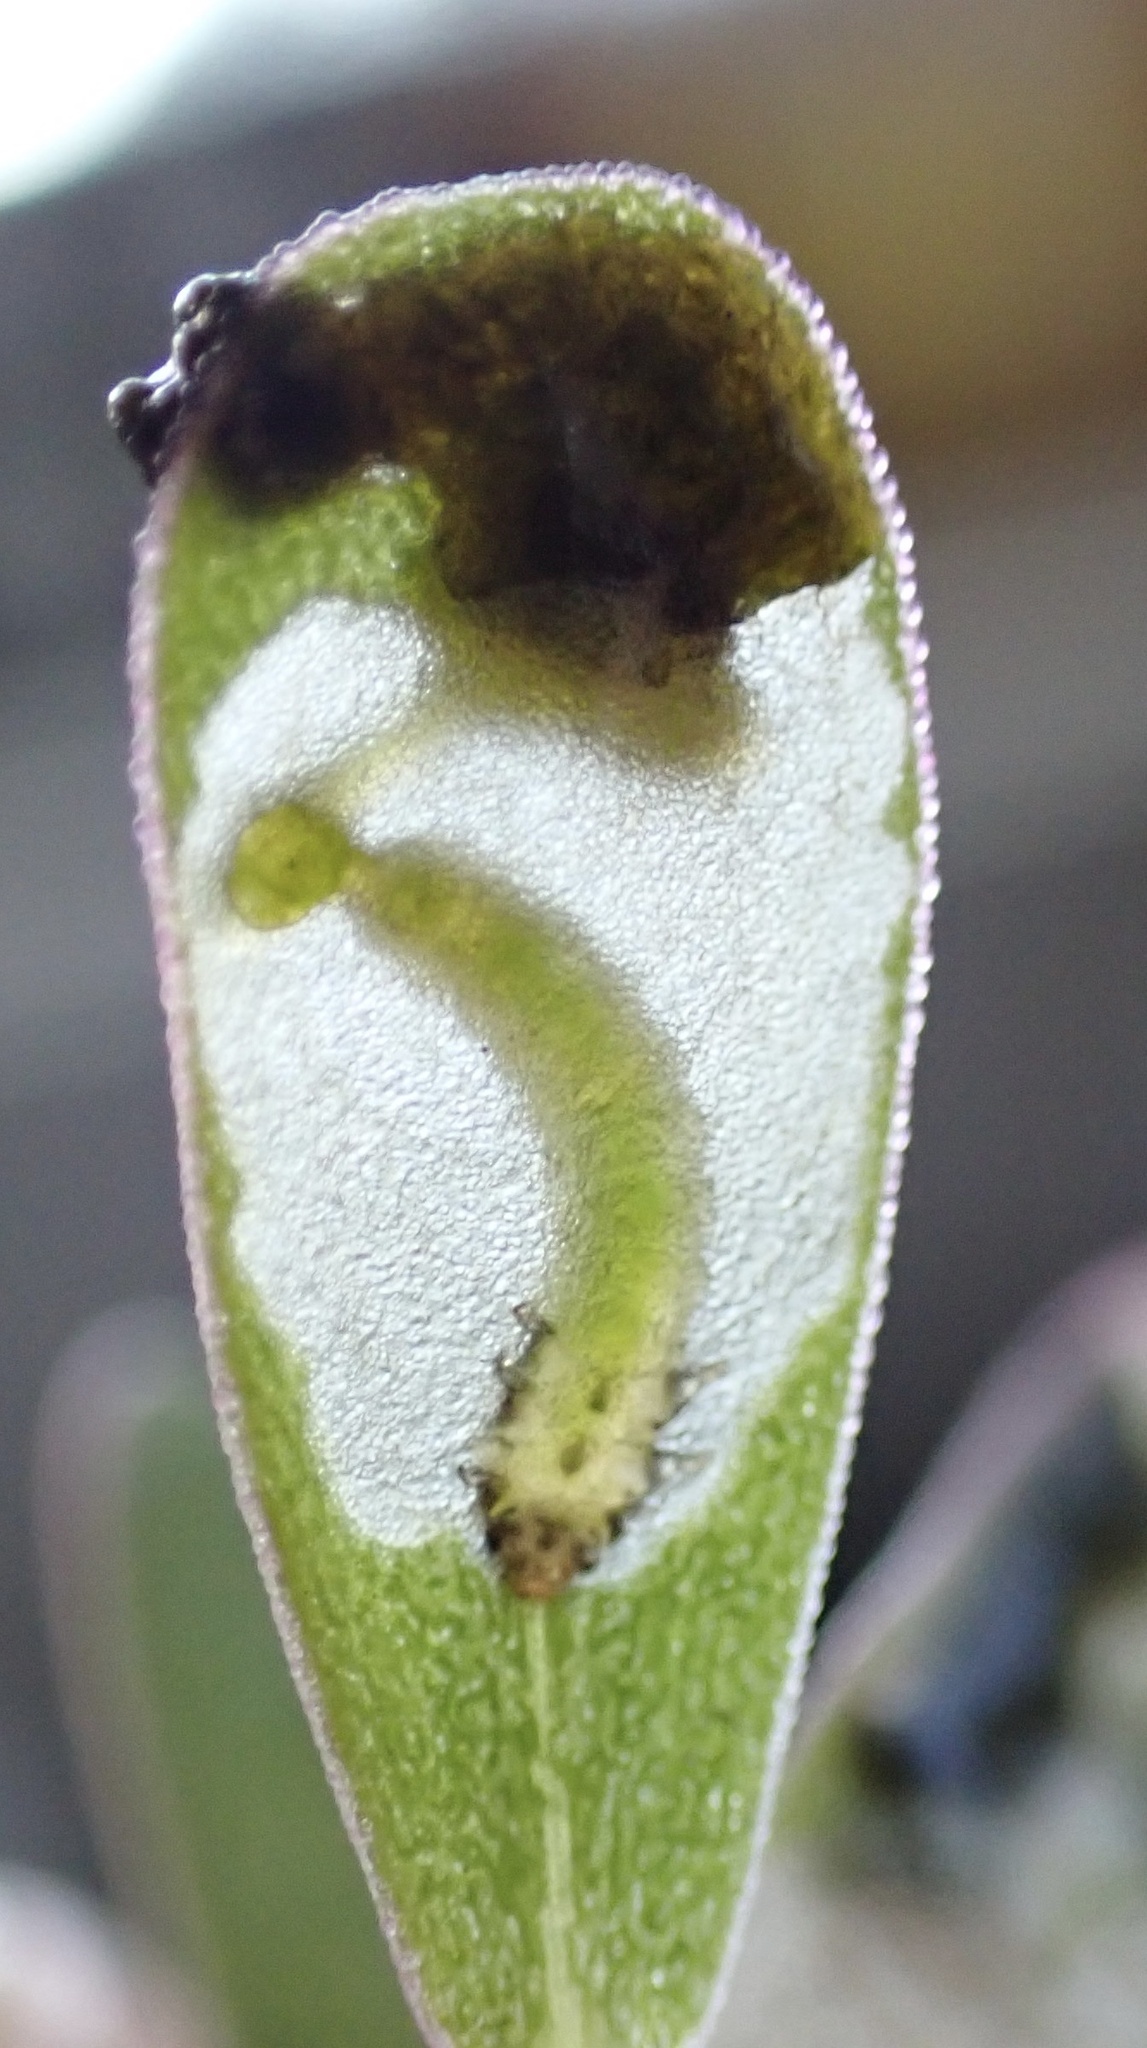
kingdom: Animalia
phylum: Arthropoda
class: Insecta
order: Hymenoptera
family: Argidae
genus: Schizocerella
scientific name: Schizocerella pilicornis
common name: Purslane sawfly
